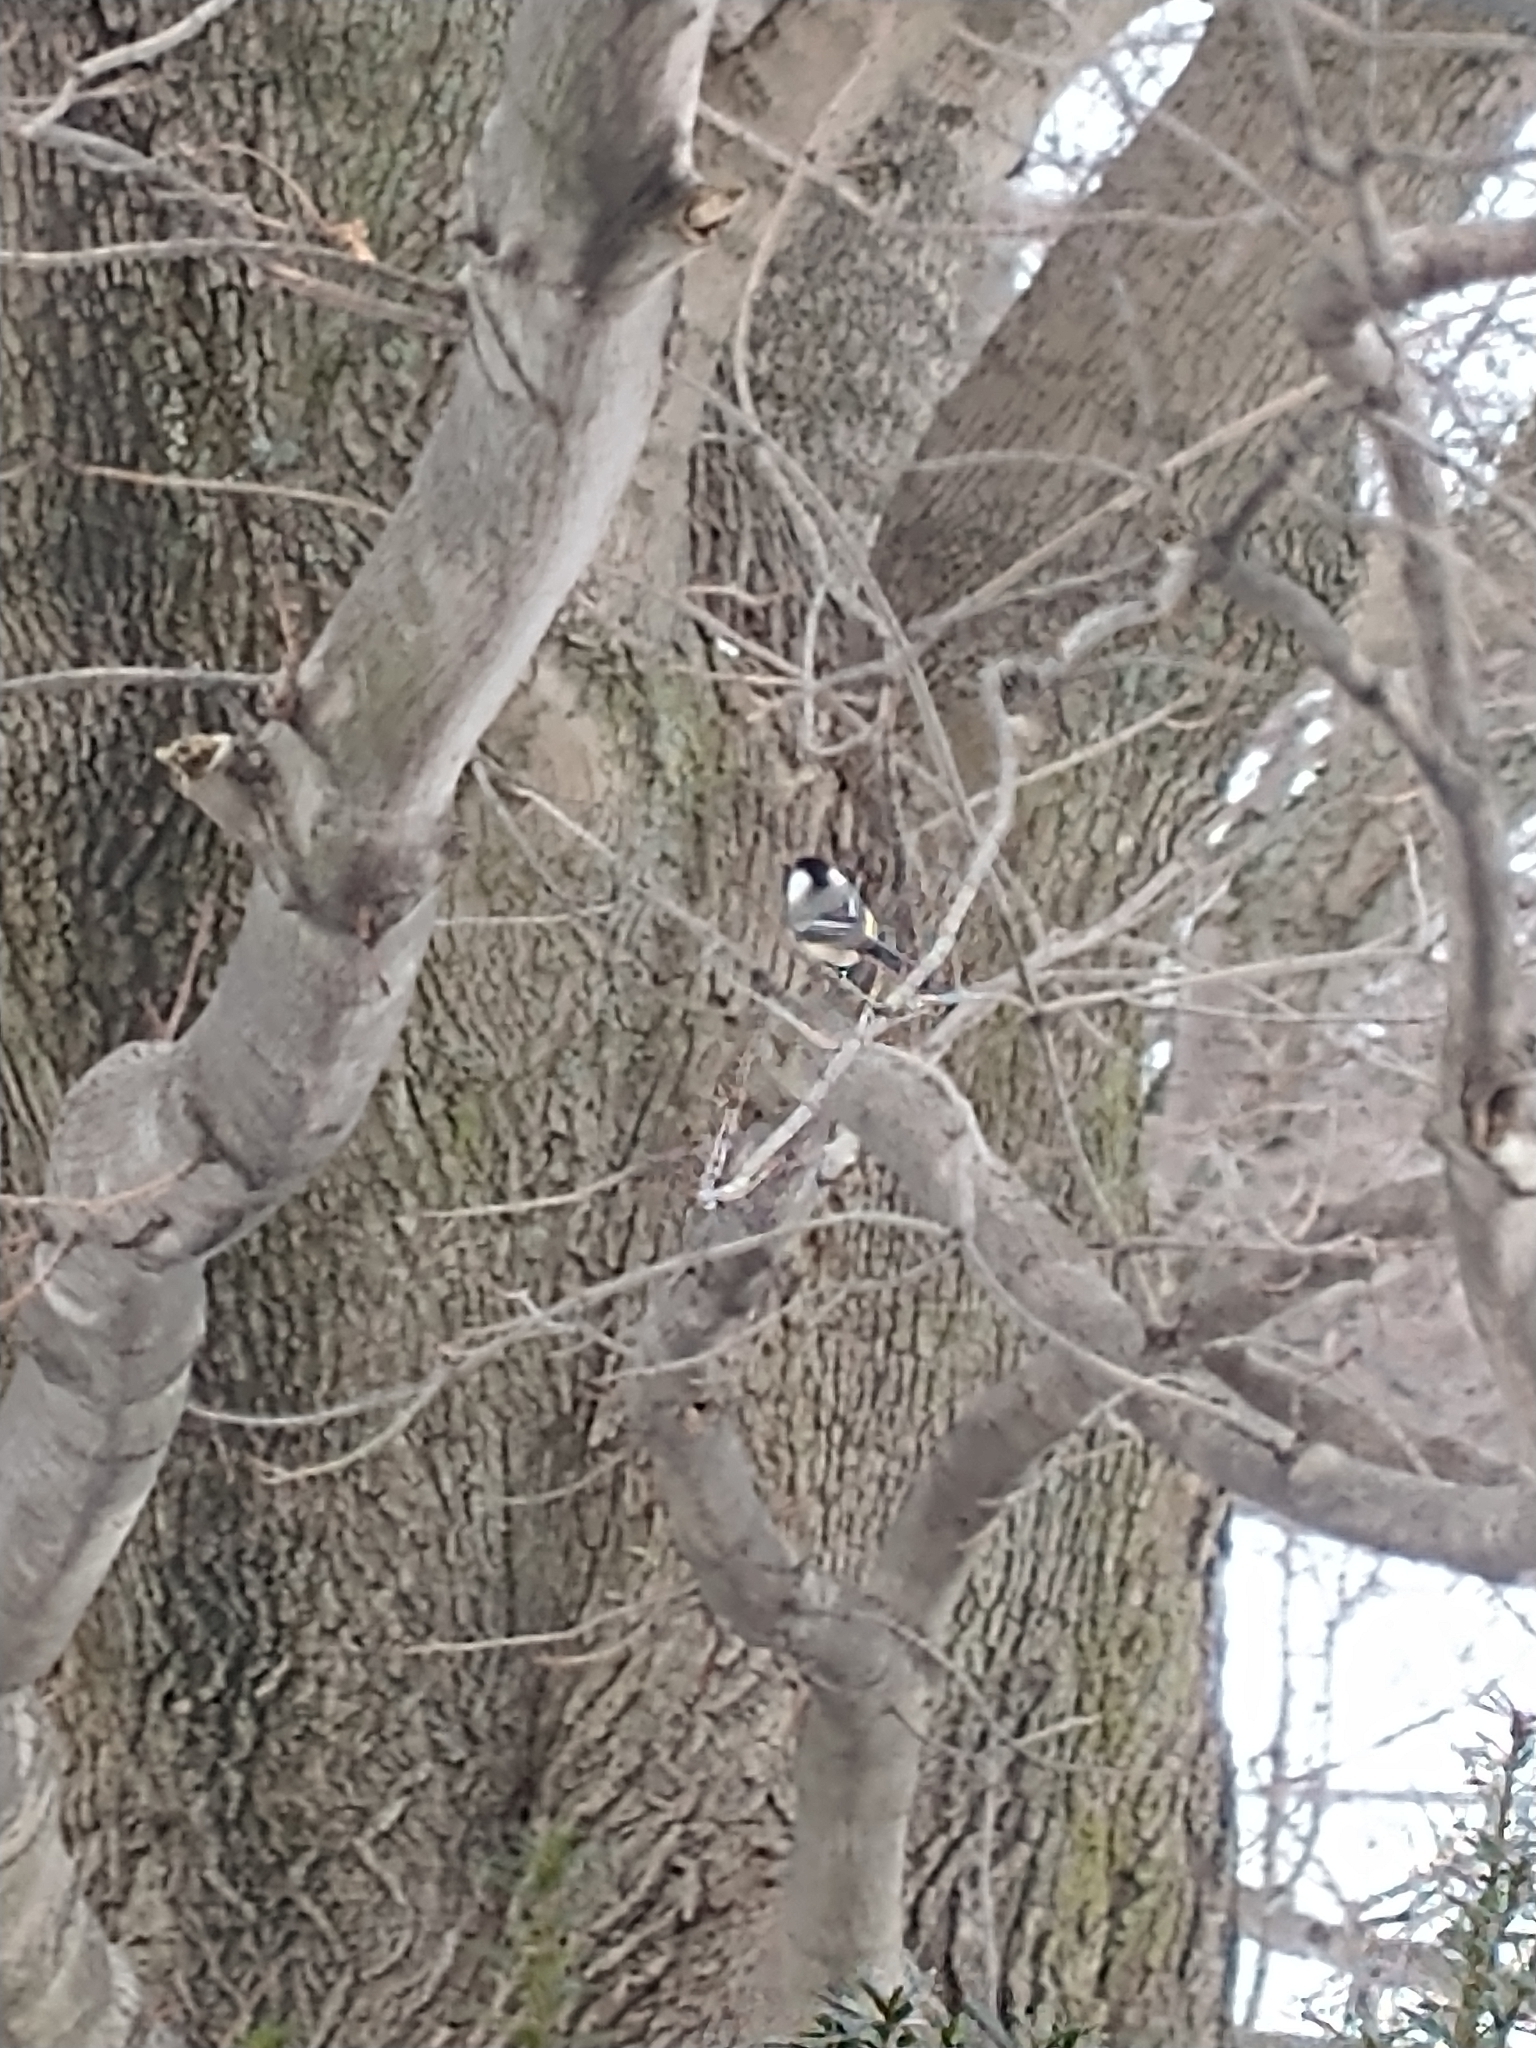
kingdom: Animalia
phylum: Chordata
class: Aves
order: Passeriformes
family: Paridae
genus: Poecile
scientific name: Poecile atricapillus
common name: Black-capped chickadee
